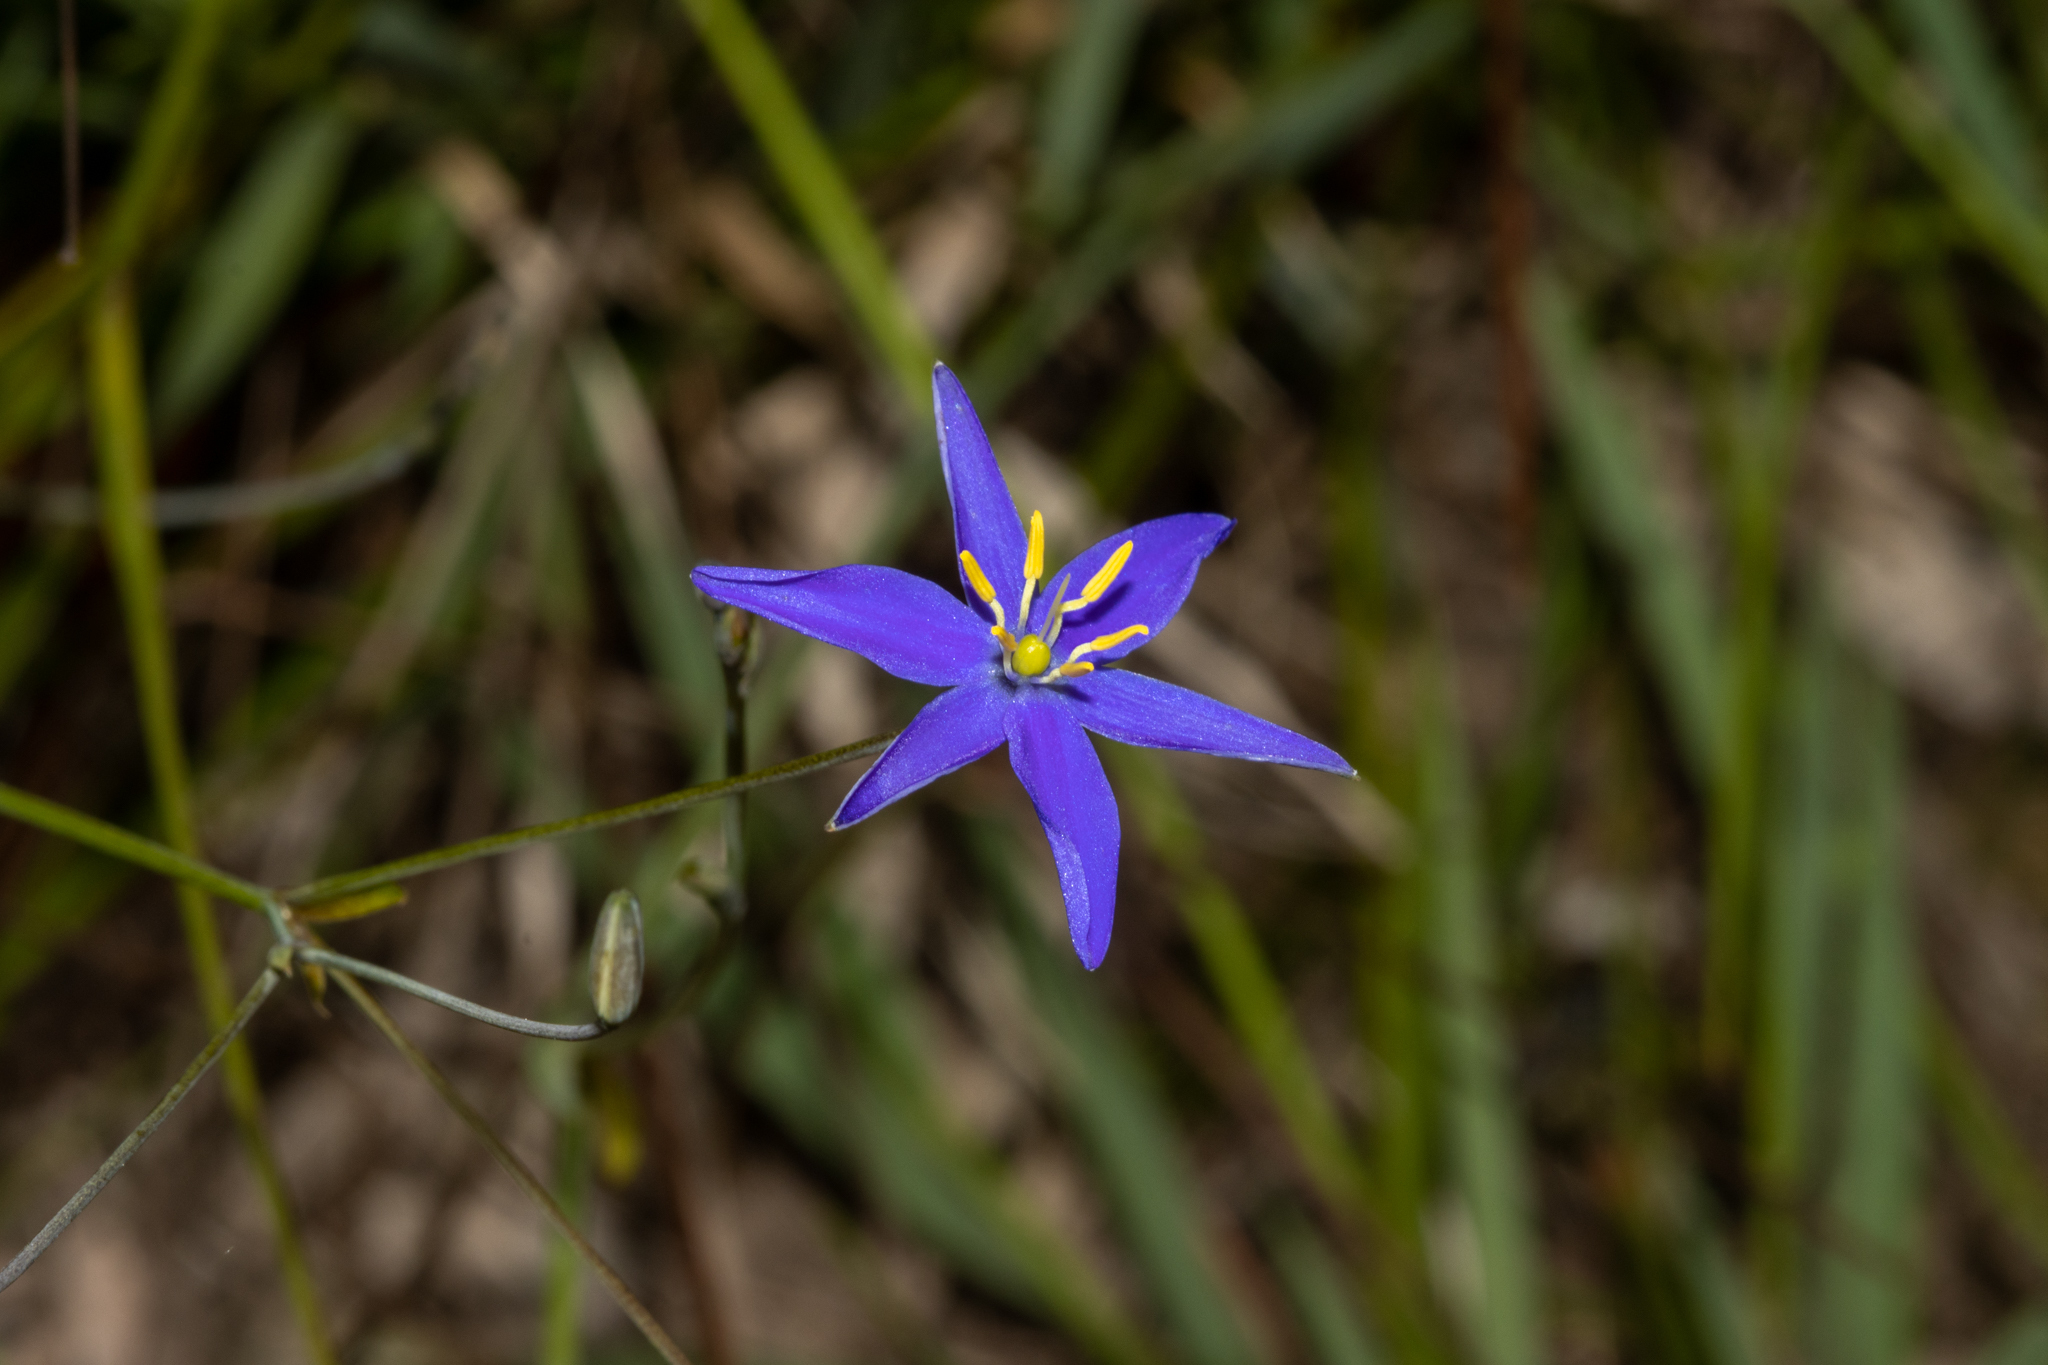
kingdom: Plantae
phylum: Tracheophyta
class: Liliopsida
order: Asparagales
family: Asphodelaceae
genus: Thelionema
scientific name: Thelionema caespitosum
